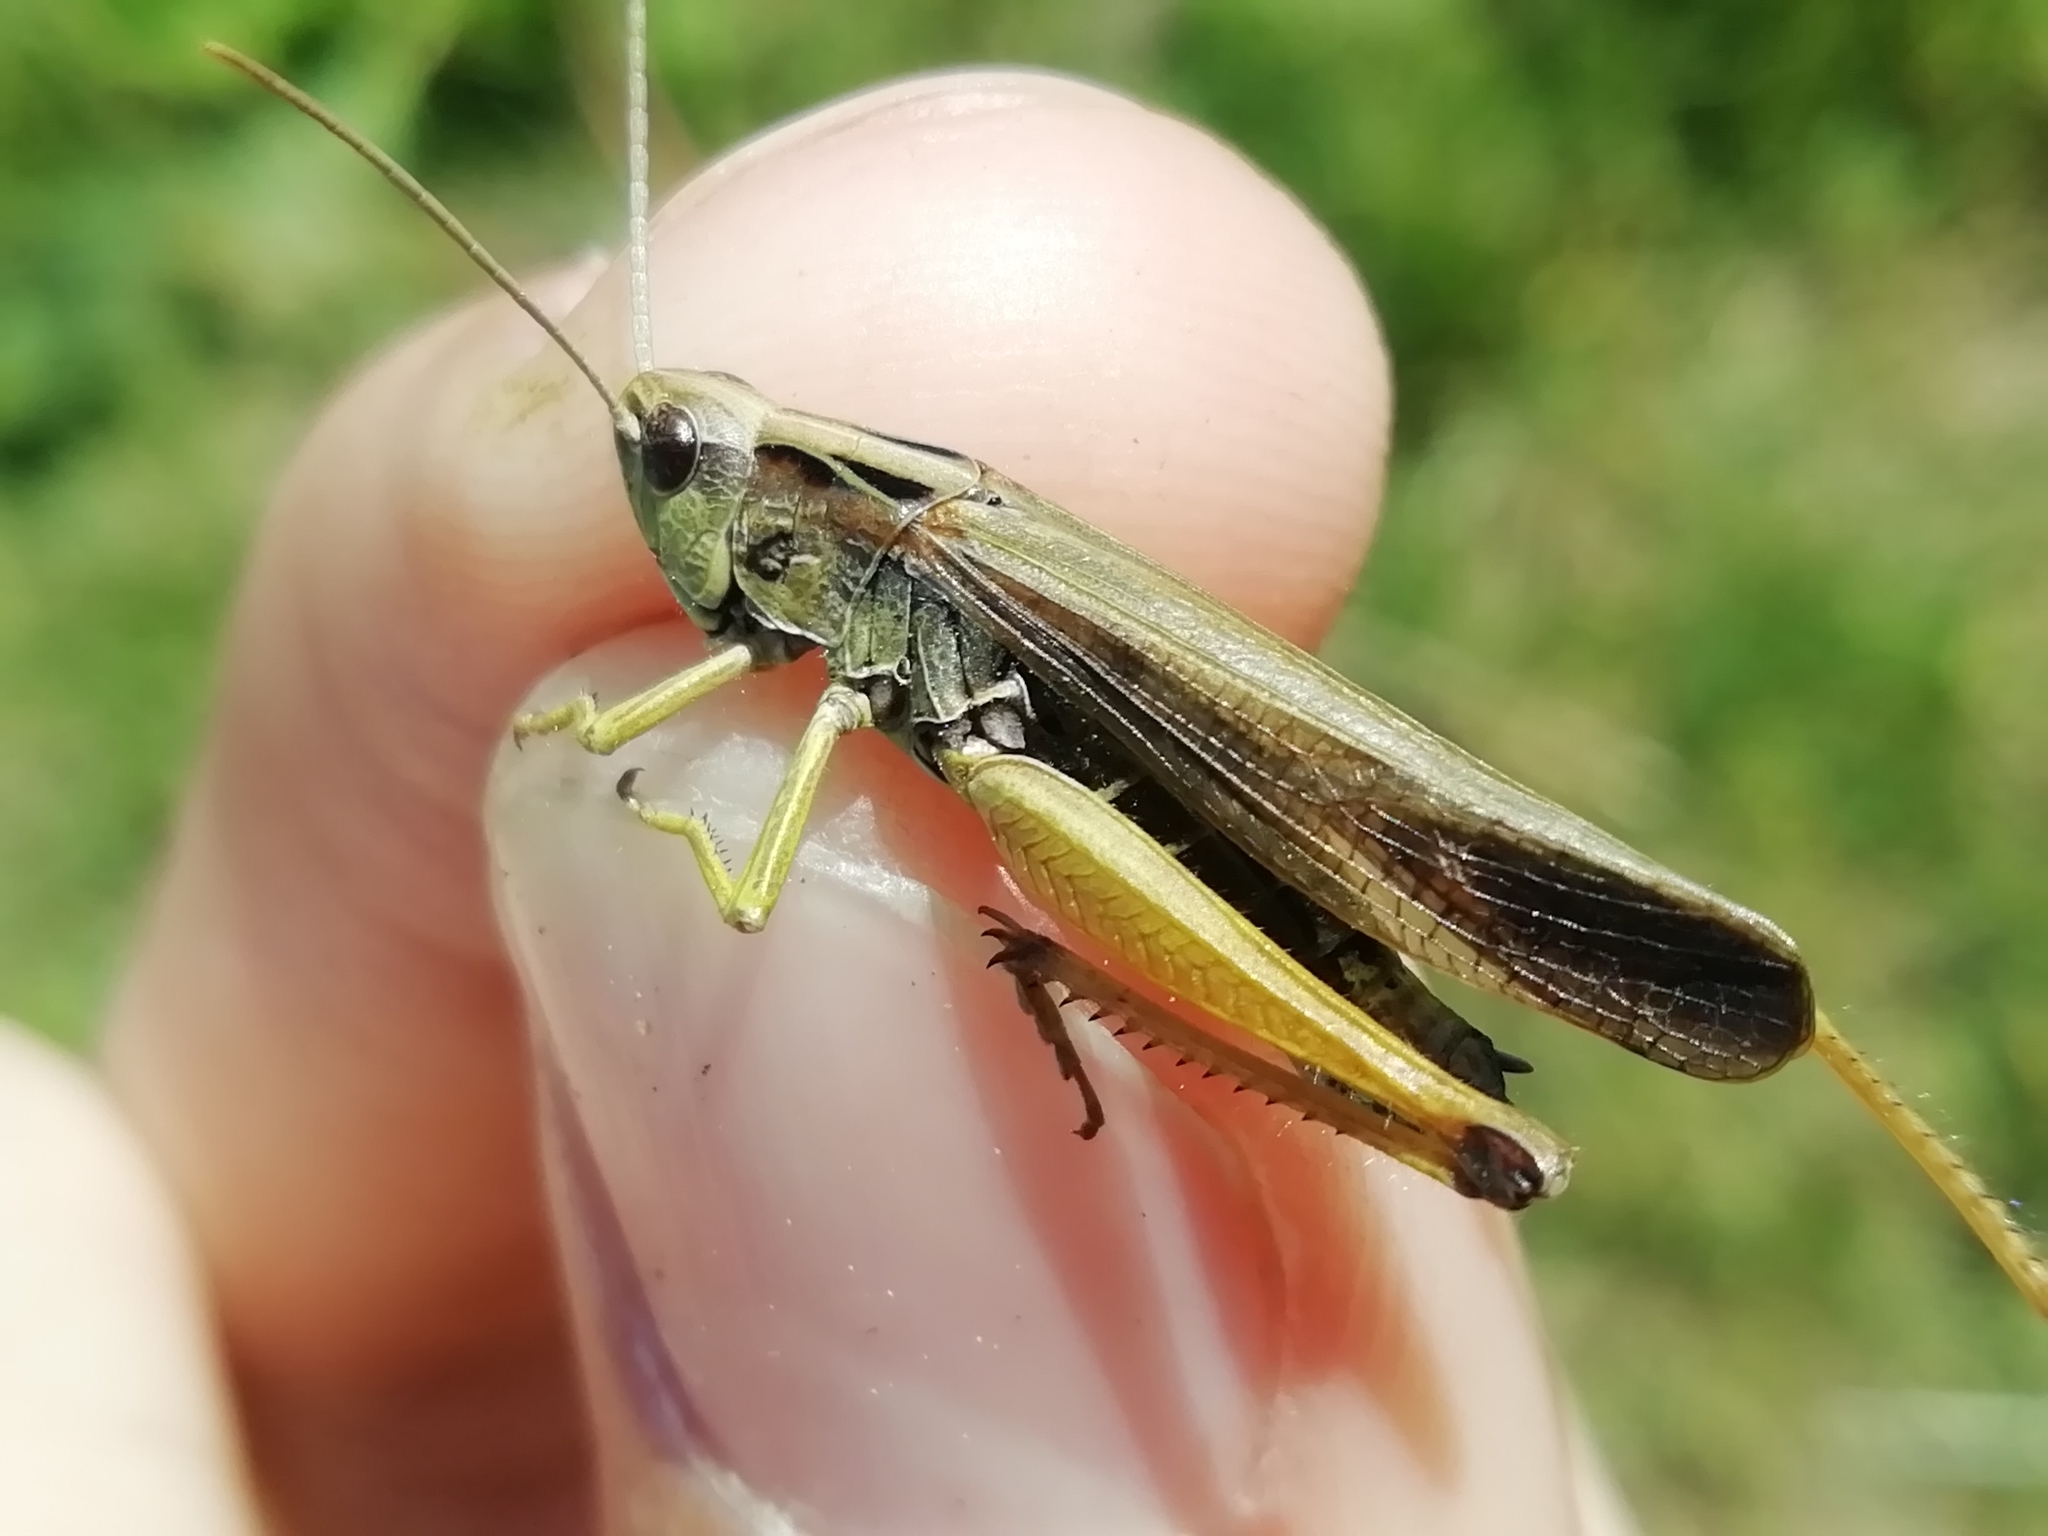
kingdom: Animalia
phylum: Arthropoda
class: Insecta
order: Orthoptera
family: Acrididae
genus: Omocestus
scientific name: Omocestus viridulus
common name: Common green grasshopper
